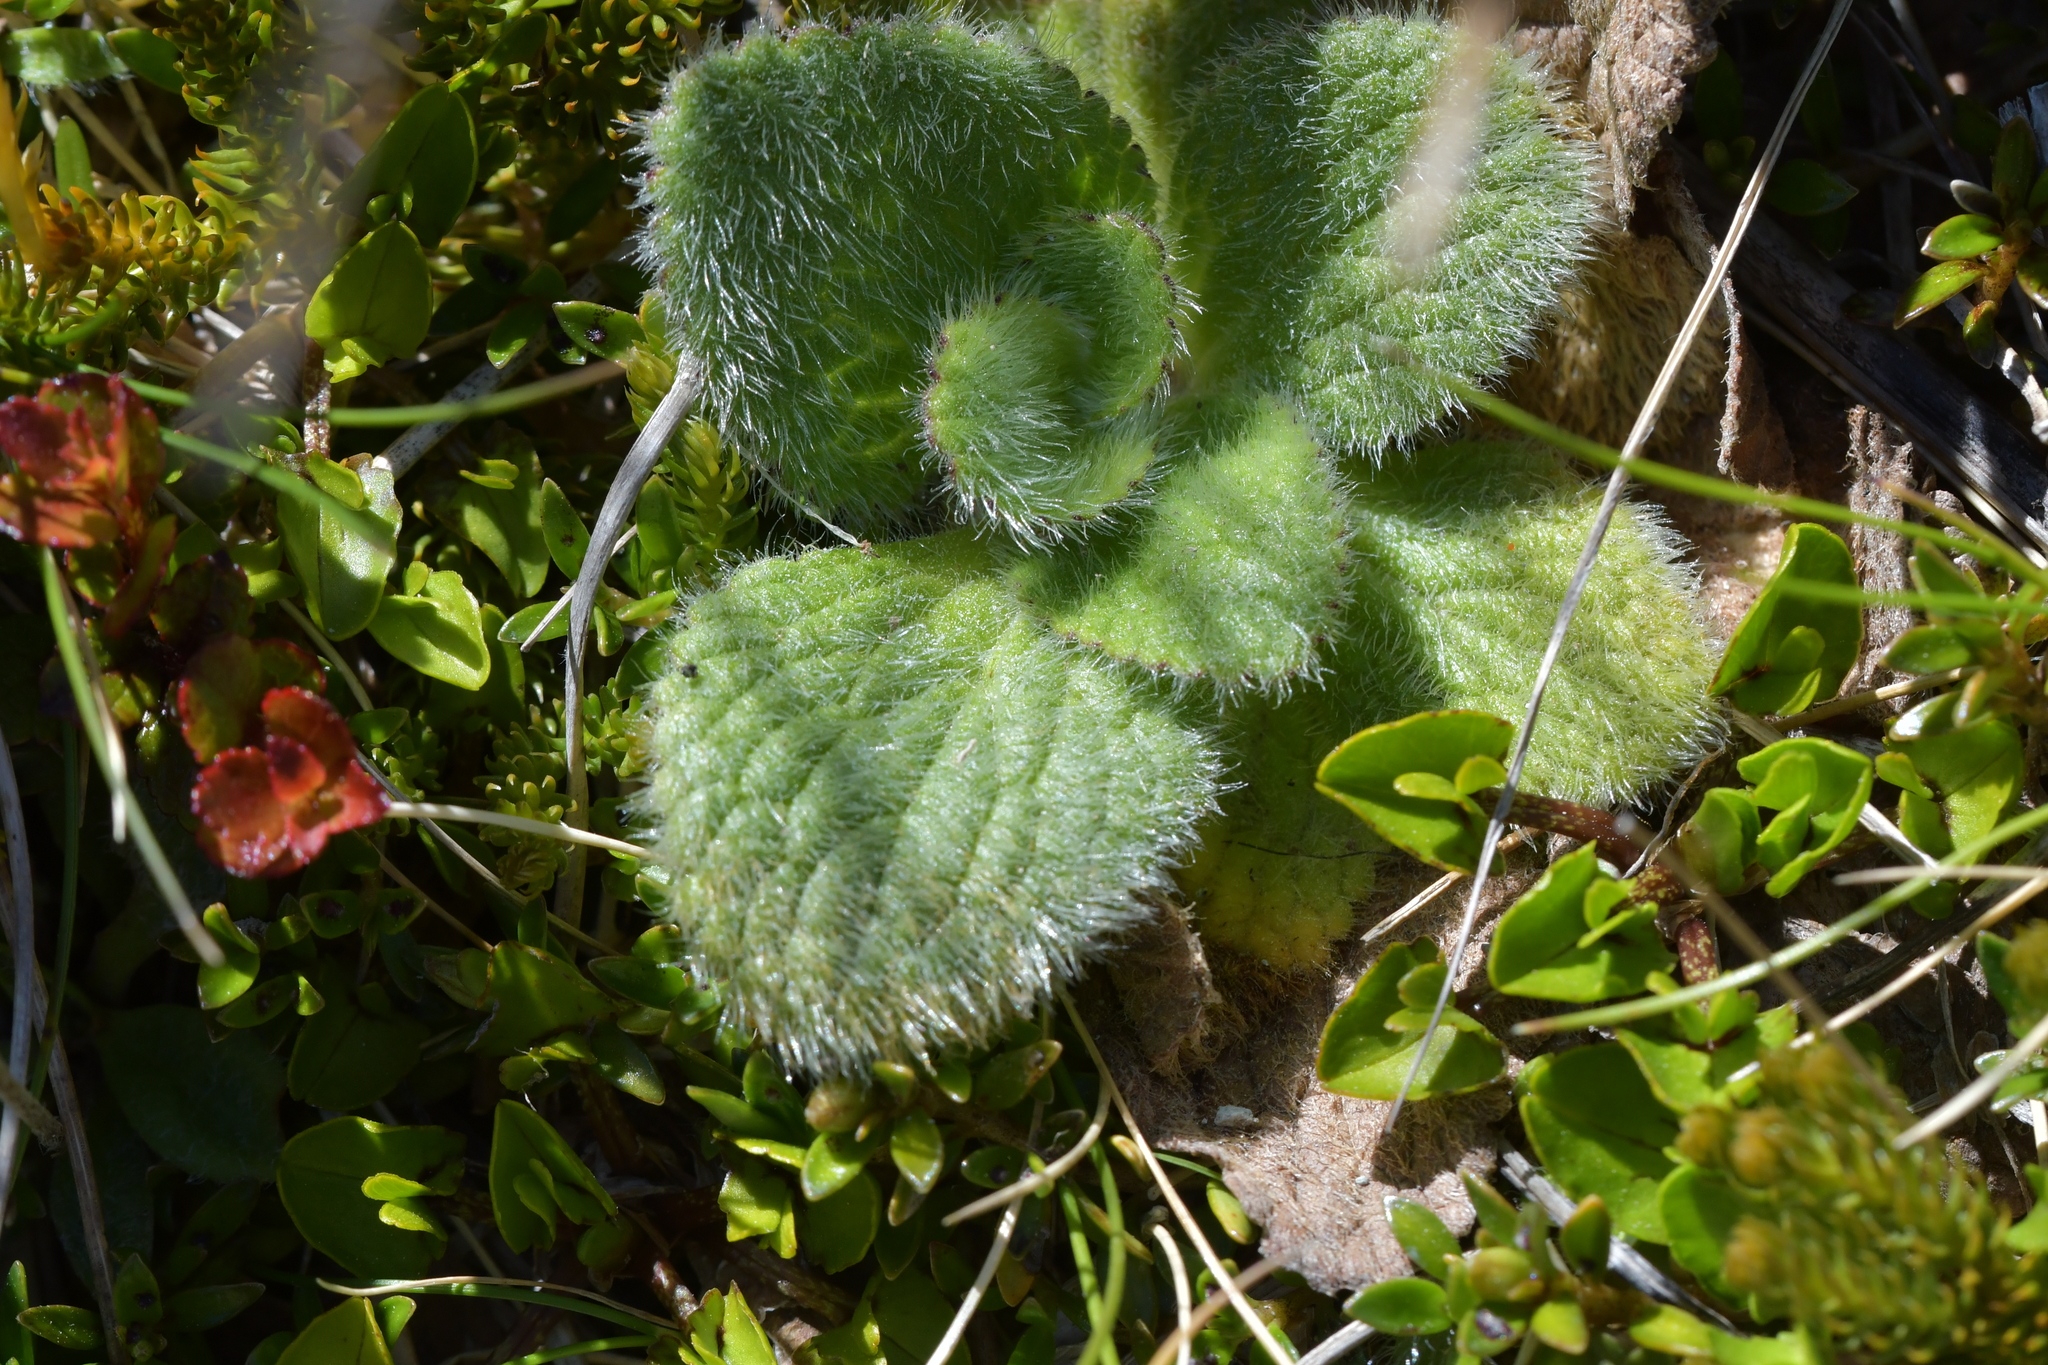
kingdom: Plantae
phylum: Tracheophyta
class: Magnoliopsida
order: Lamiales
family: Plantaginaceae
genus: Ourisia
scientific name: Ourisia sessilifolia
